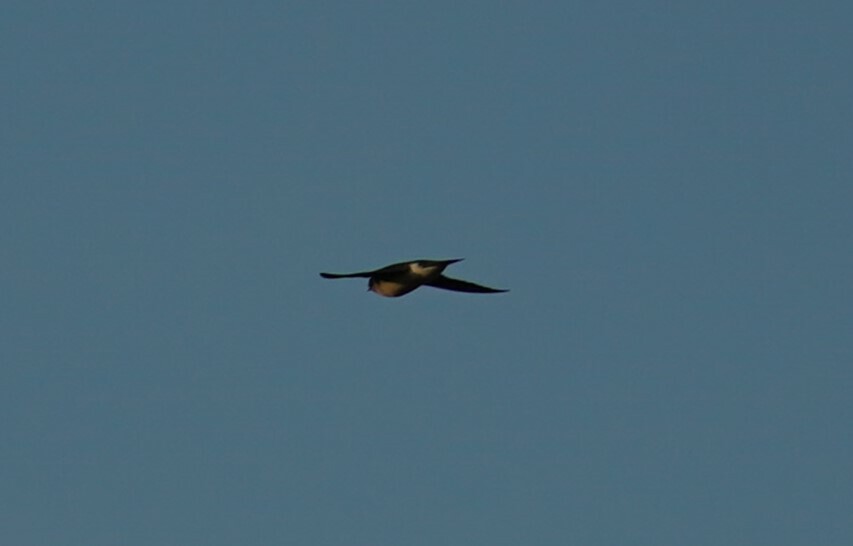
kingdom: Animalia
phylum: Chordata
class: Aves
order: Passeriformes
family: Hirundinidae
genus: Tachycineta
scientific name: Tachycineta bicolor
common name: Tree swallow
